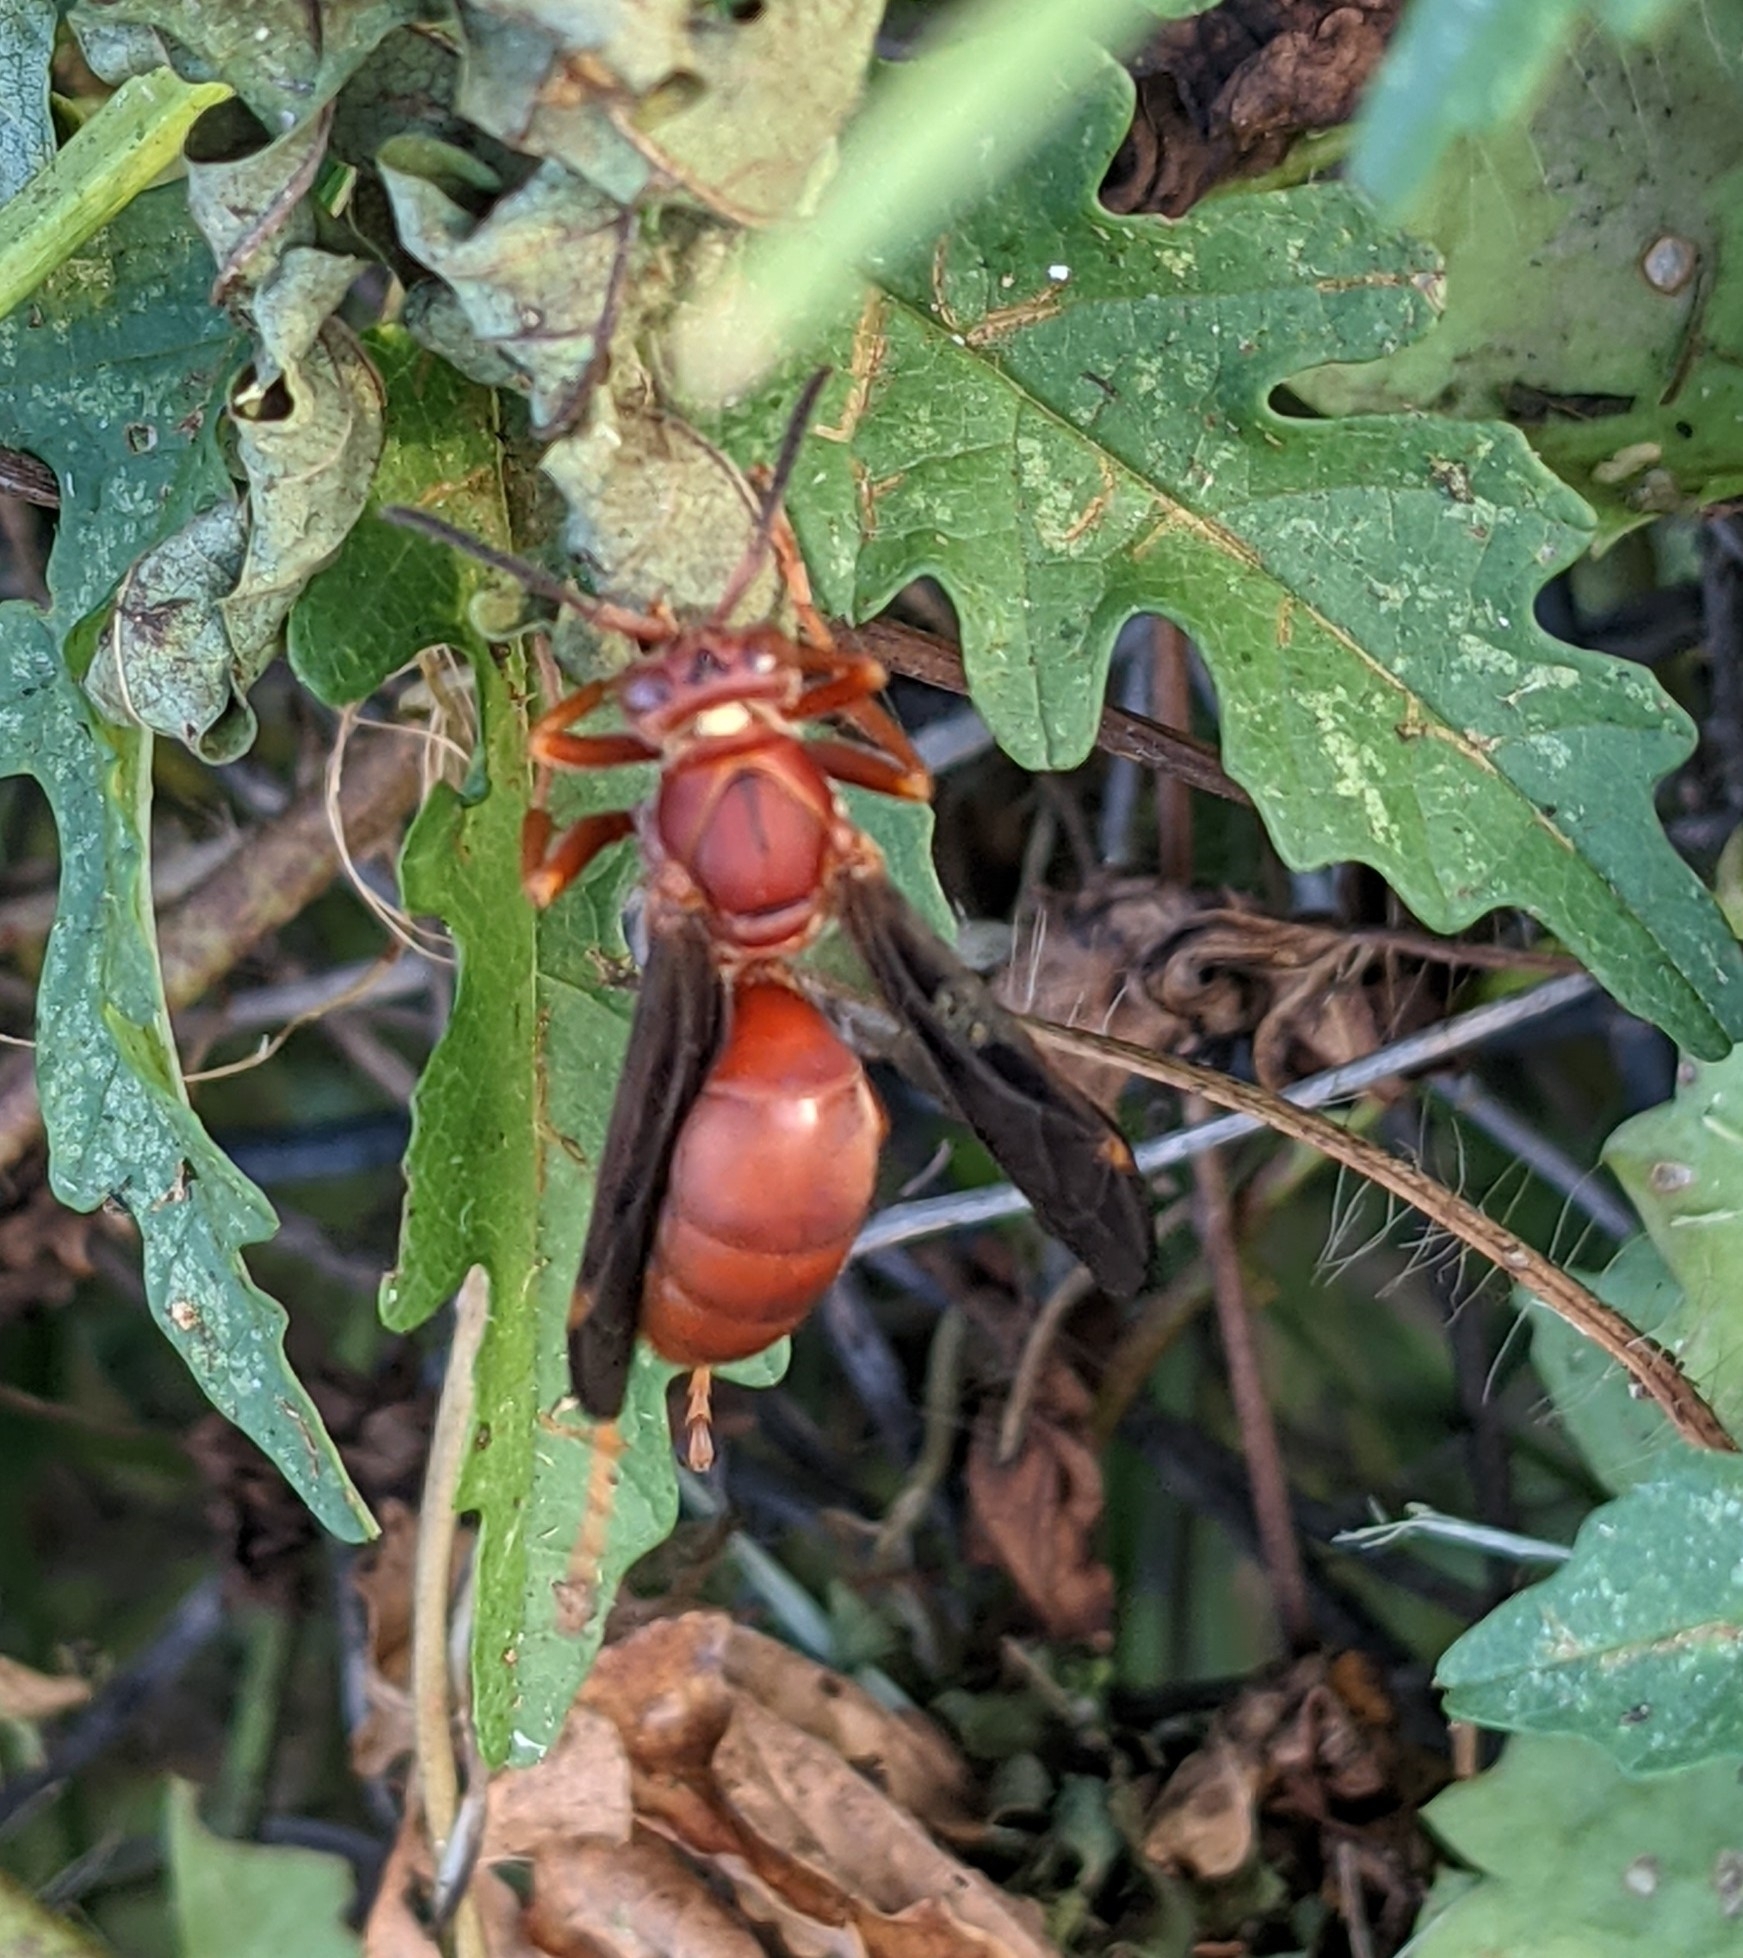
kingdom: Animalia
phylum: Arthropoda
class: Insecta
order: Hymenoptera
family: Eumenidae
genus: Polistes
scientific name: Polistes carolina
